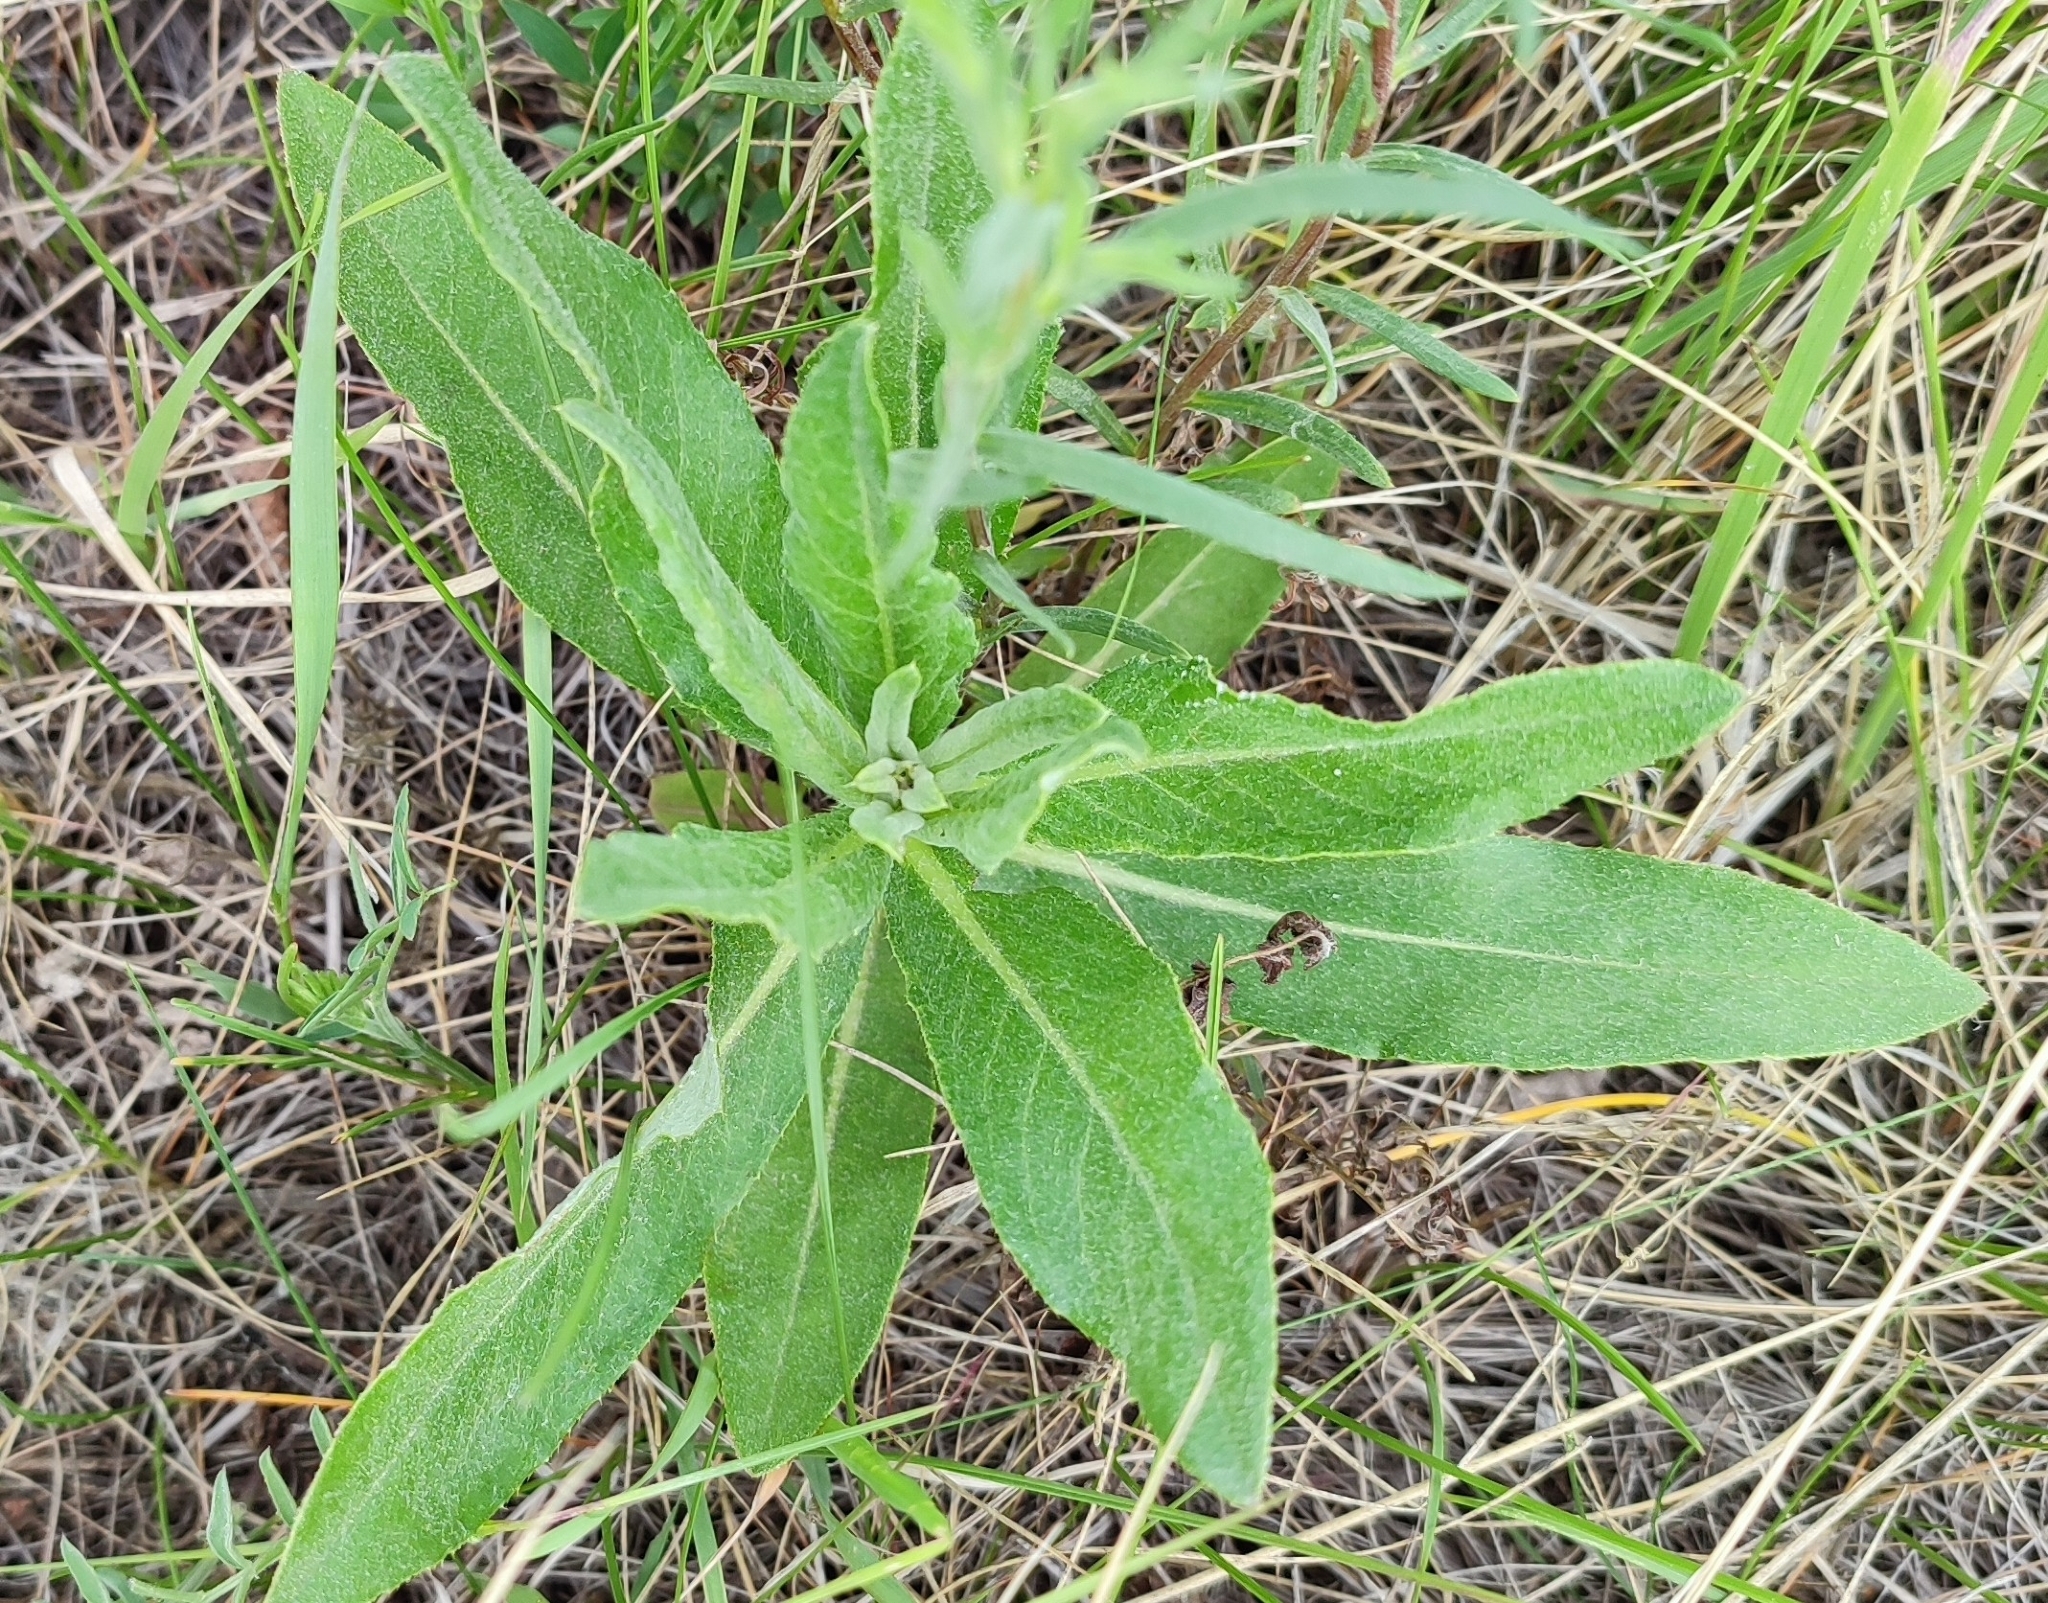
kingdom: Plantae
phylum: Tracheophyta
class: Magnoliopsida
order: Asterales
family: Asteraceae
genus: Cirsium
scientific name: Cirsium arvense
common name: Creeping thistle
